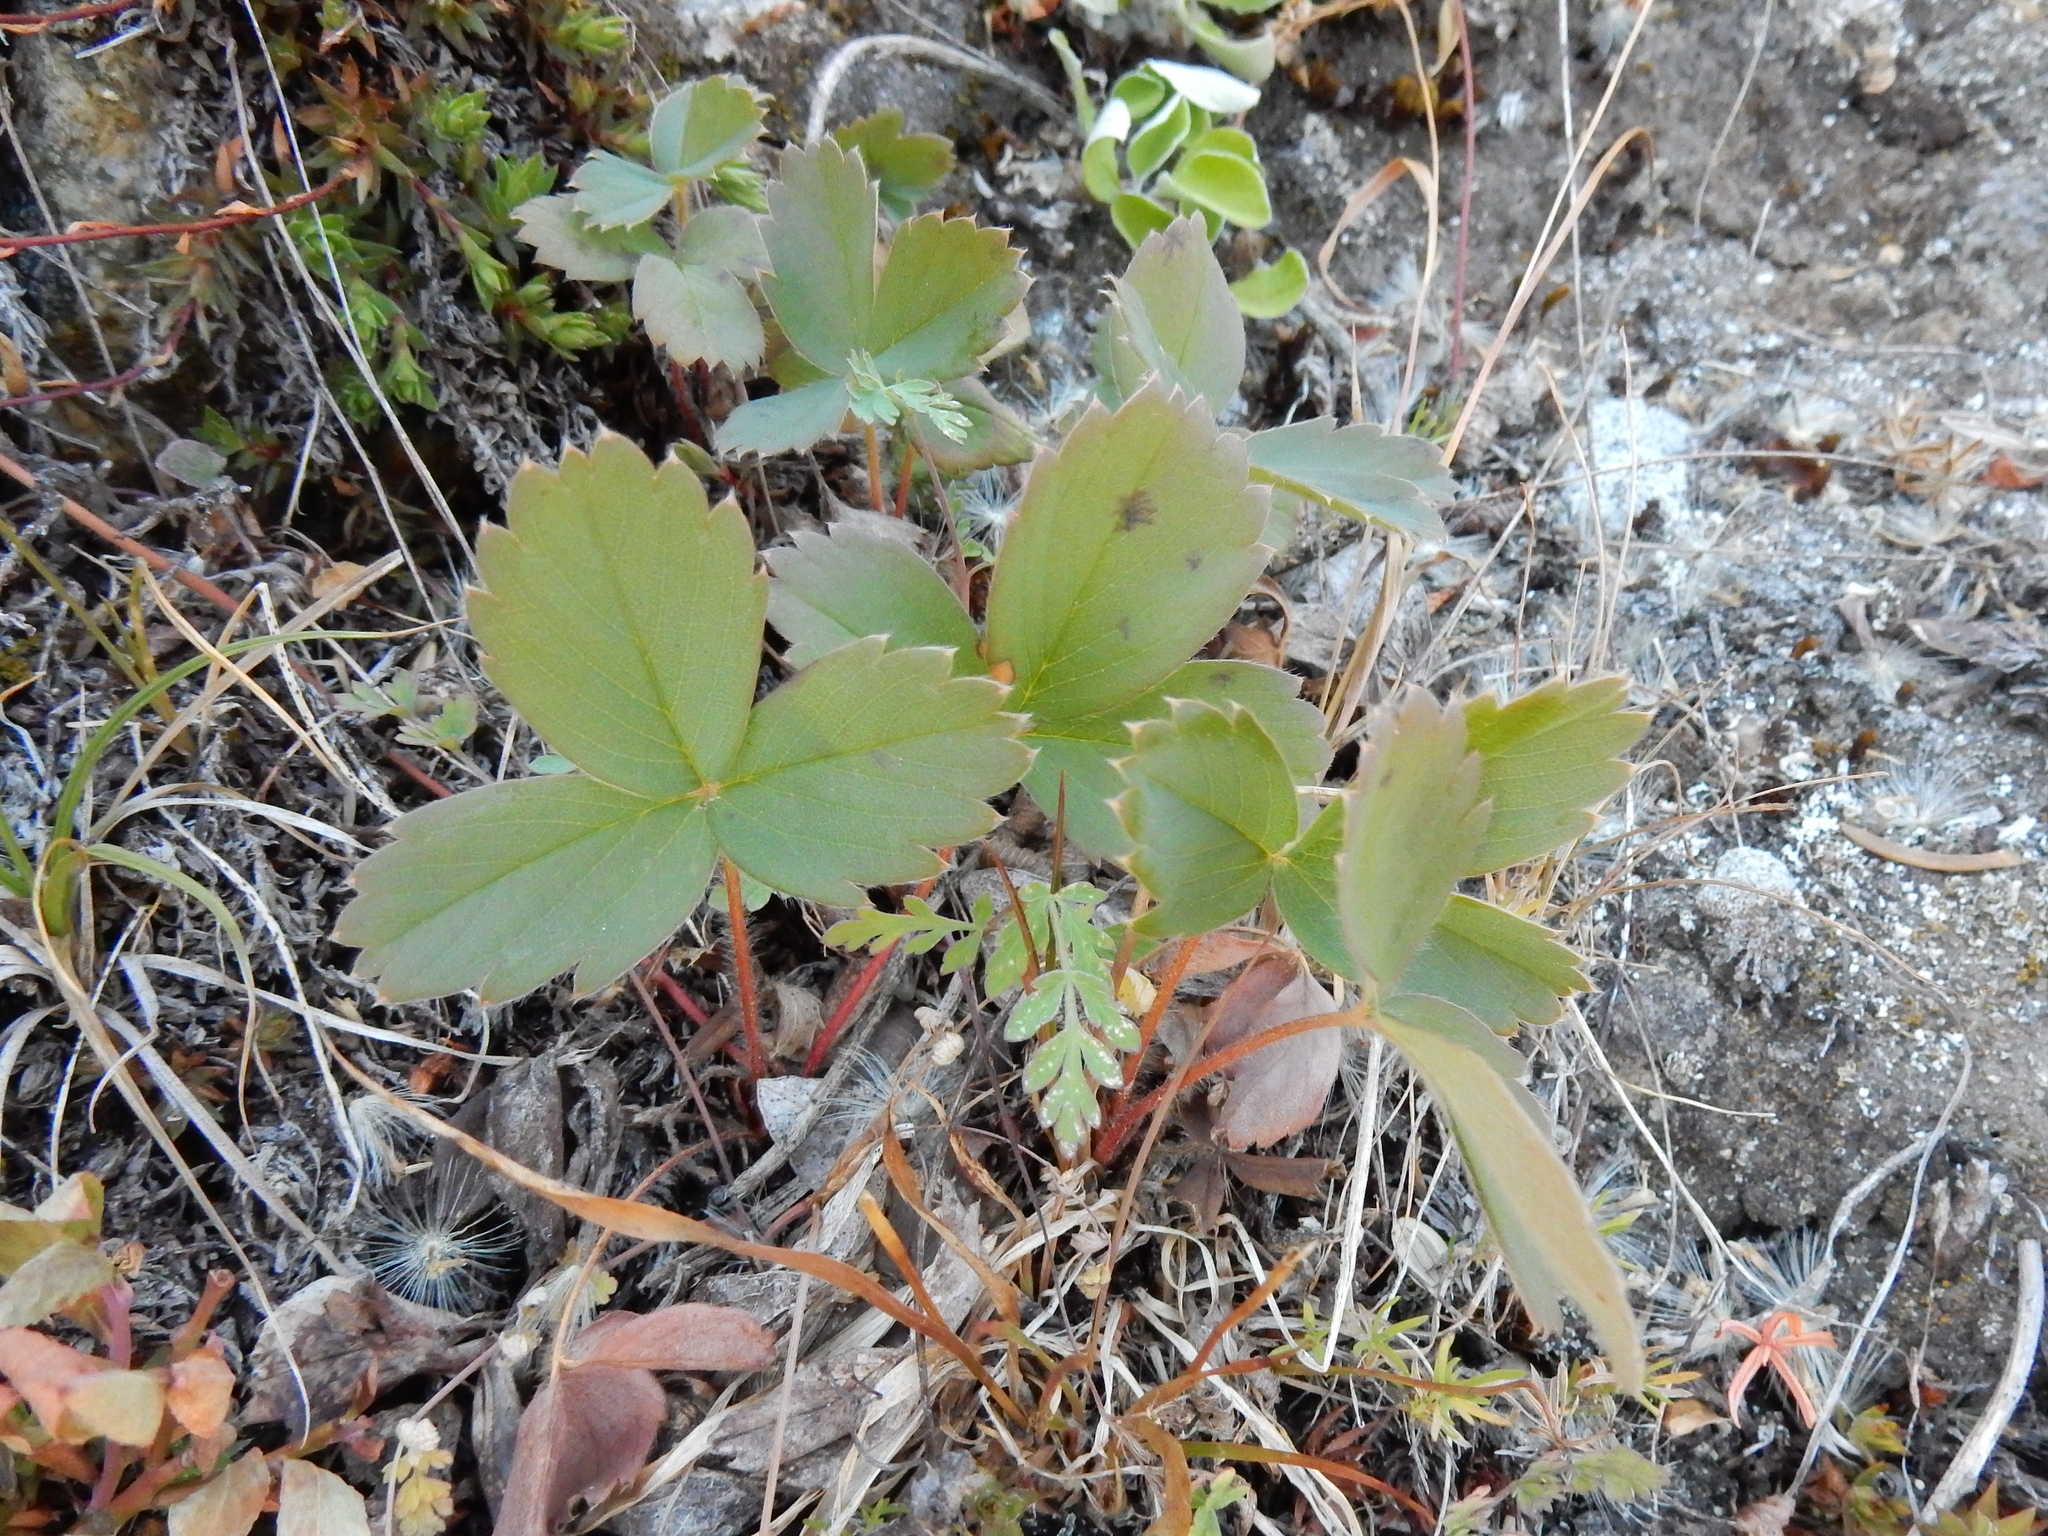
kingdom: Plantae
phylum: Tracheophyta
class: Magnoliopsida
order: Rosales
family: Rosaceae
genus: Fragaria
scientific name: Fragaria virginiana
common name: Thickleaved wild strawberry
